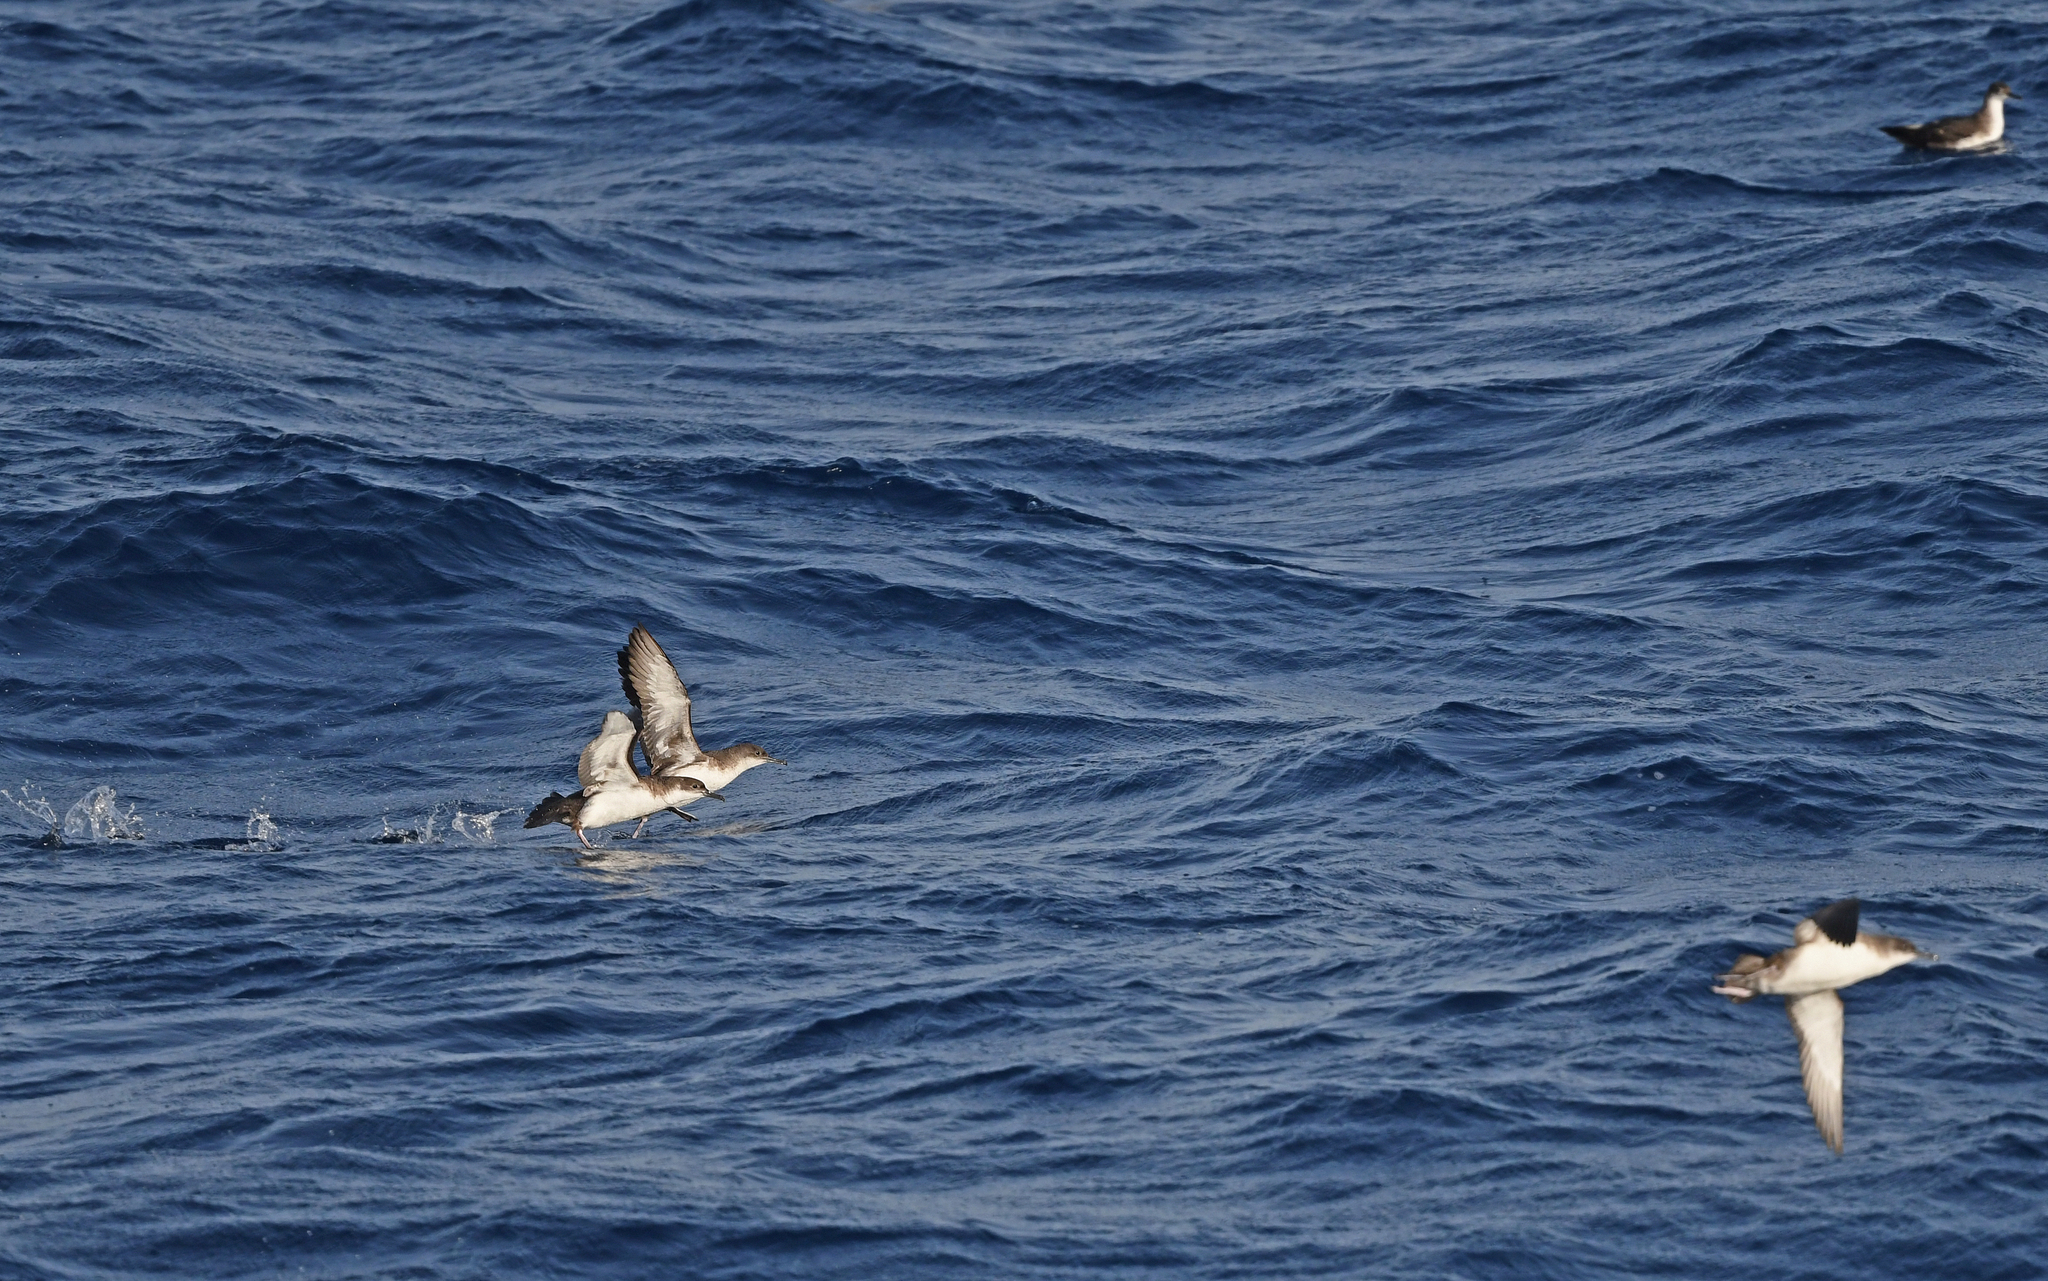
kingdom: Animalia
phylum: Chordata
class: Aves
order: Procellariiformes
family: Procellariidae
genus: Puffinus
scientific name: Puffinus yelkouan
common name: Yelkouan shearwater
